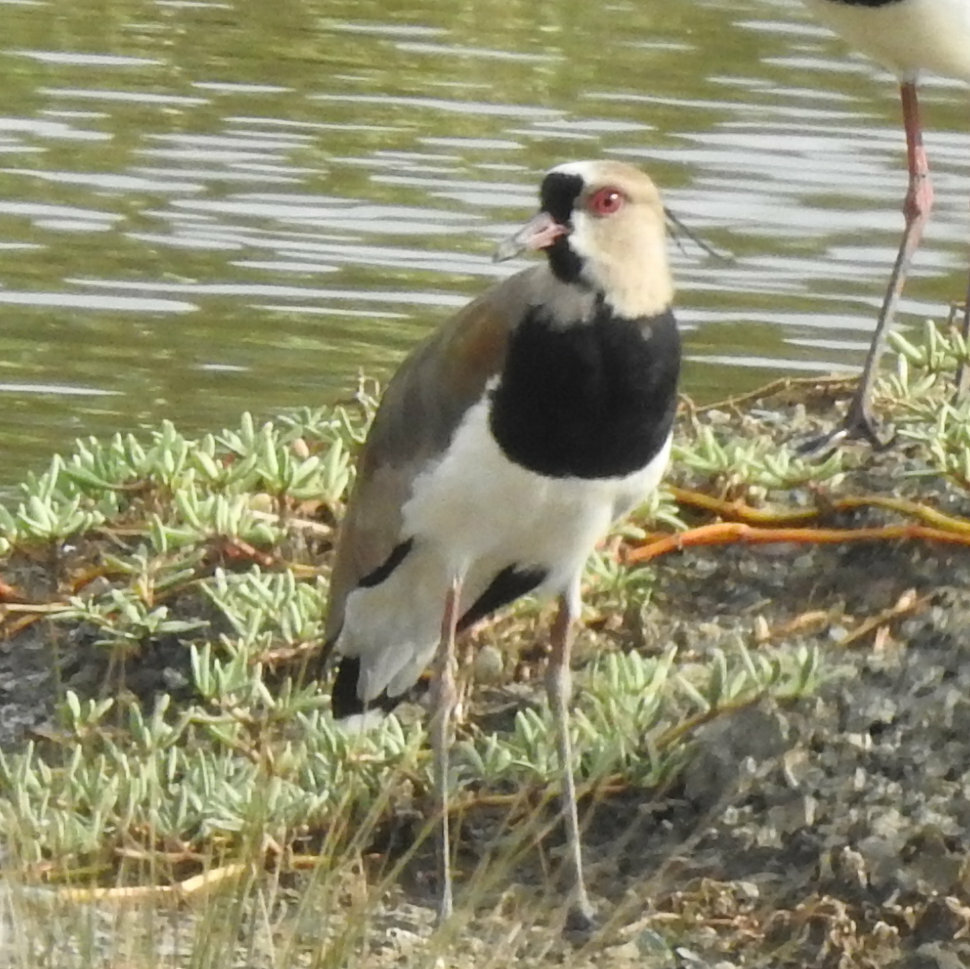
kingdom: Animalia
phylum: Chordata
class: Aves
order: Charadriiformes
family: Charadriidae
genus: Vanellus
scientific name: Vanellus chilensis
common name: Southern lapwing
